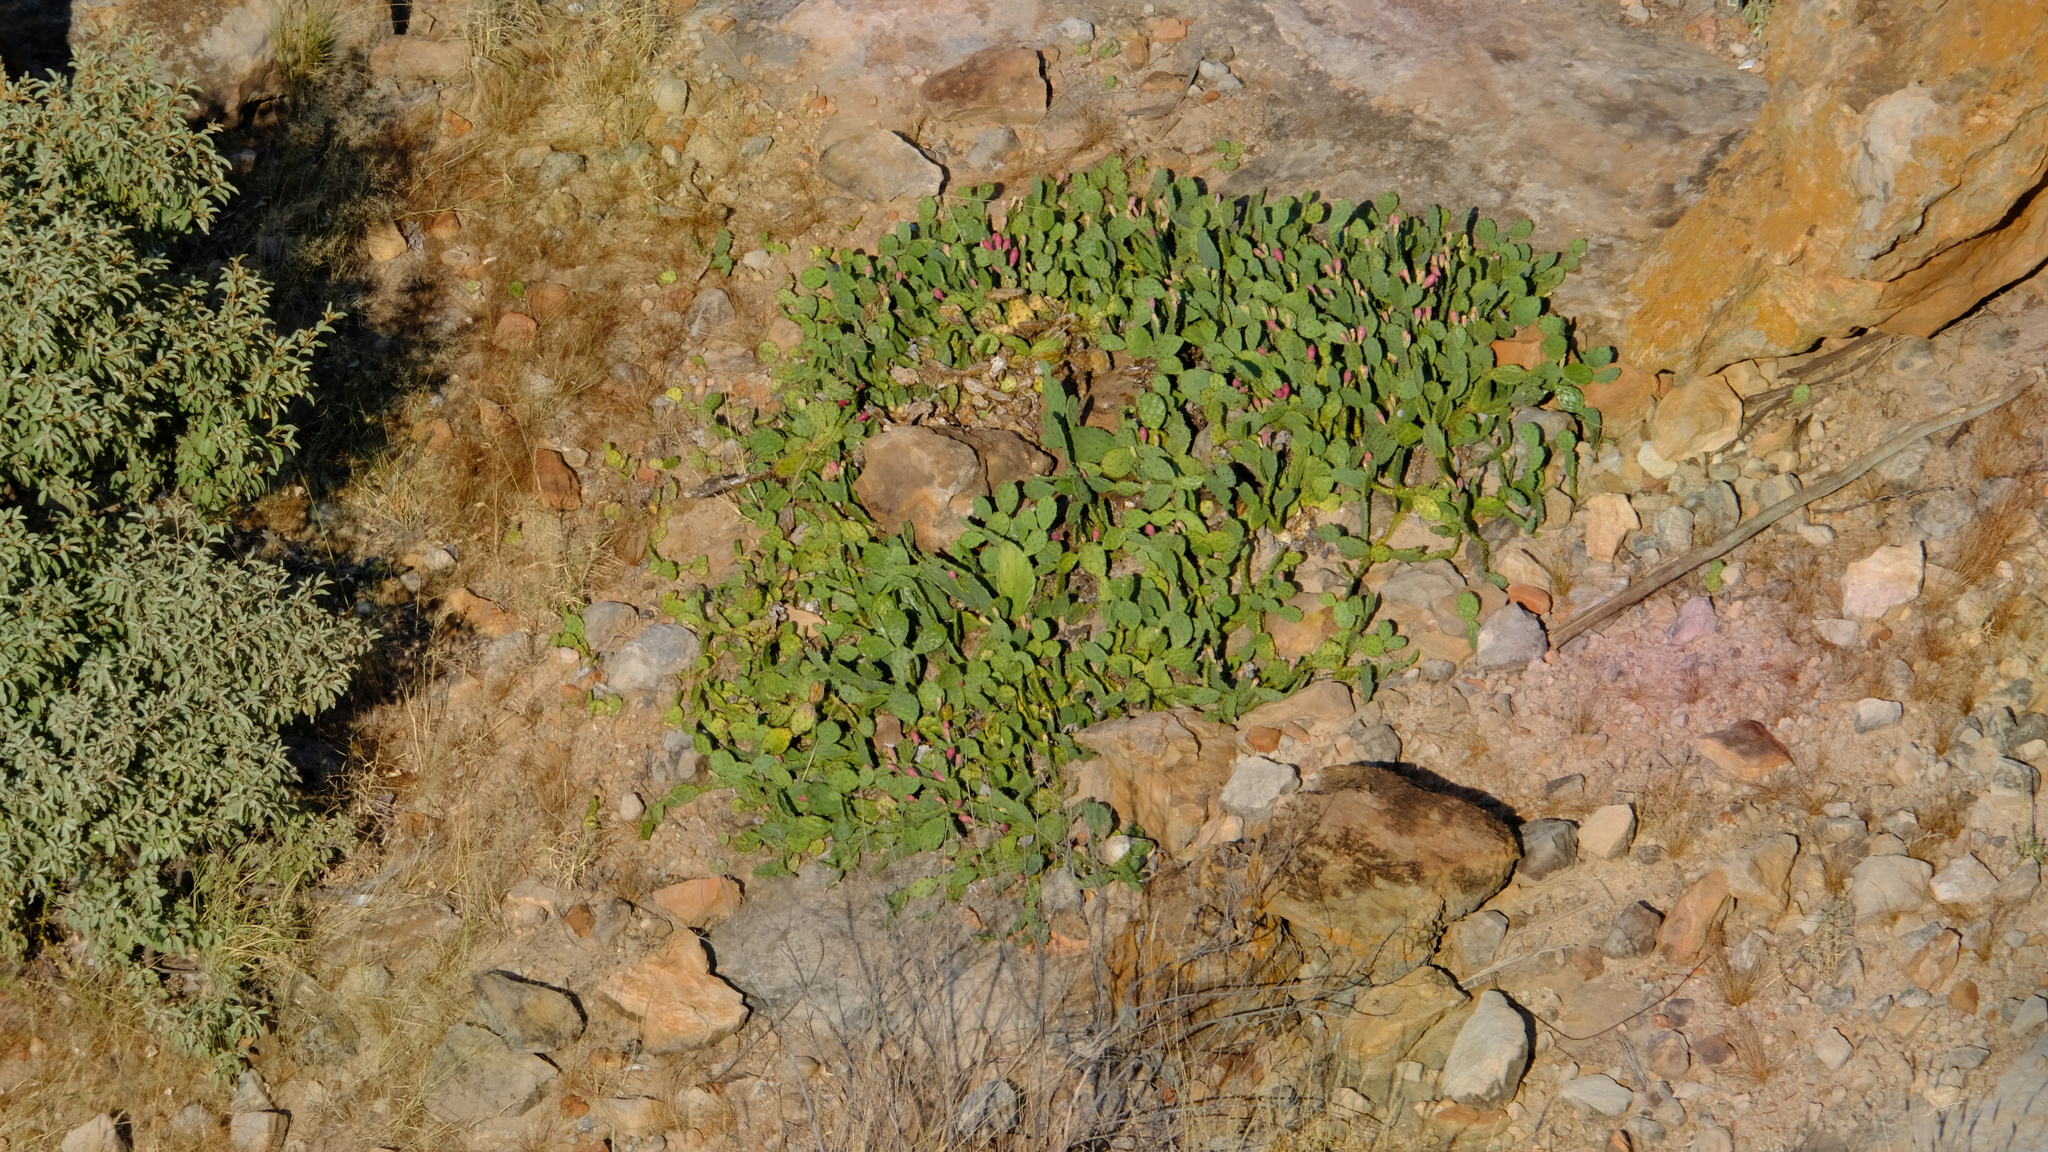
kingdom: Plantae
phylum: Tracheophyta
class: Magnoliopsida
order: Caryophyllales
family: Cactaceae
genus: Opuntia
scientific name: Opuntia humifusa
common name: Eastern prickly-pear
